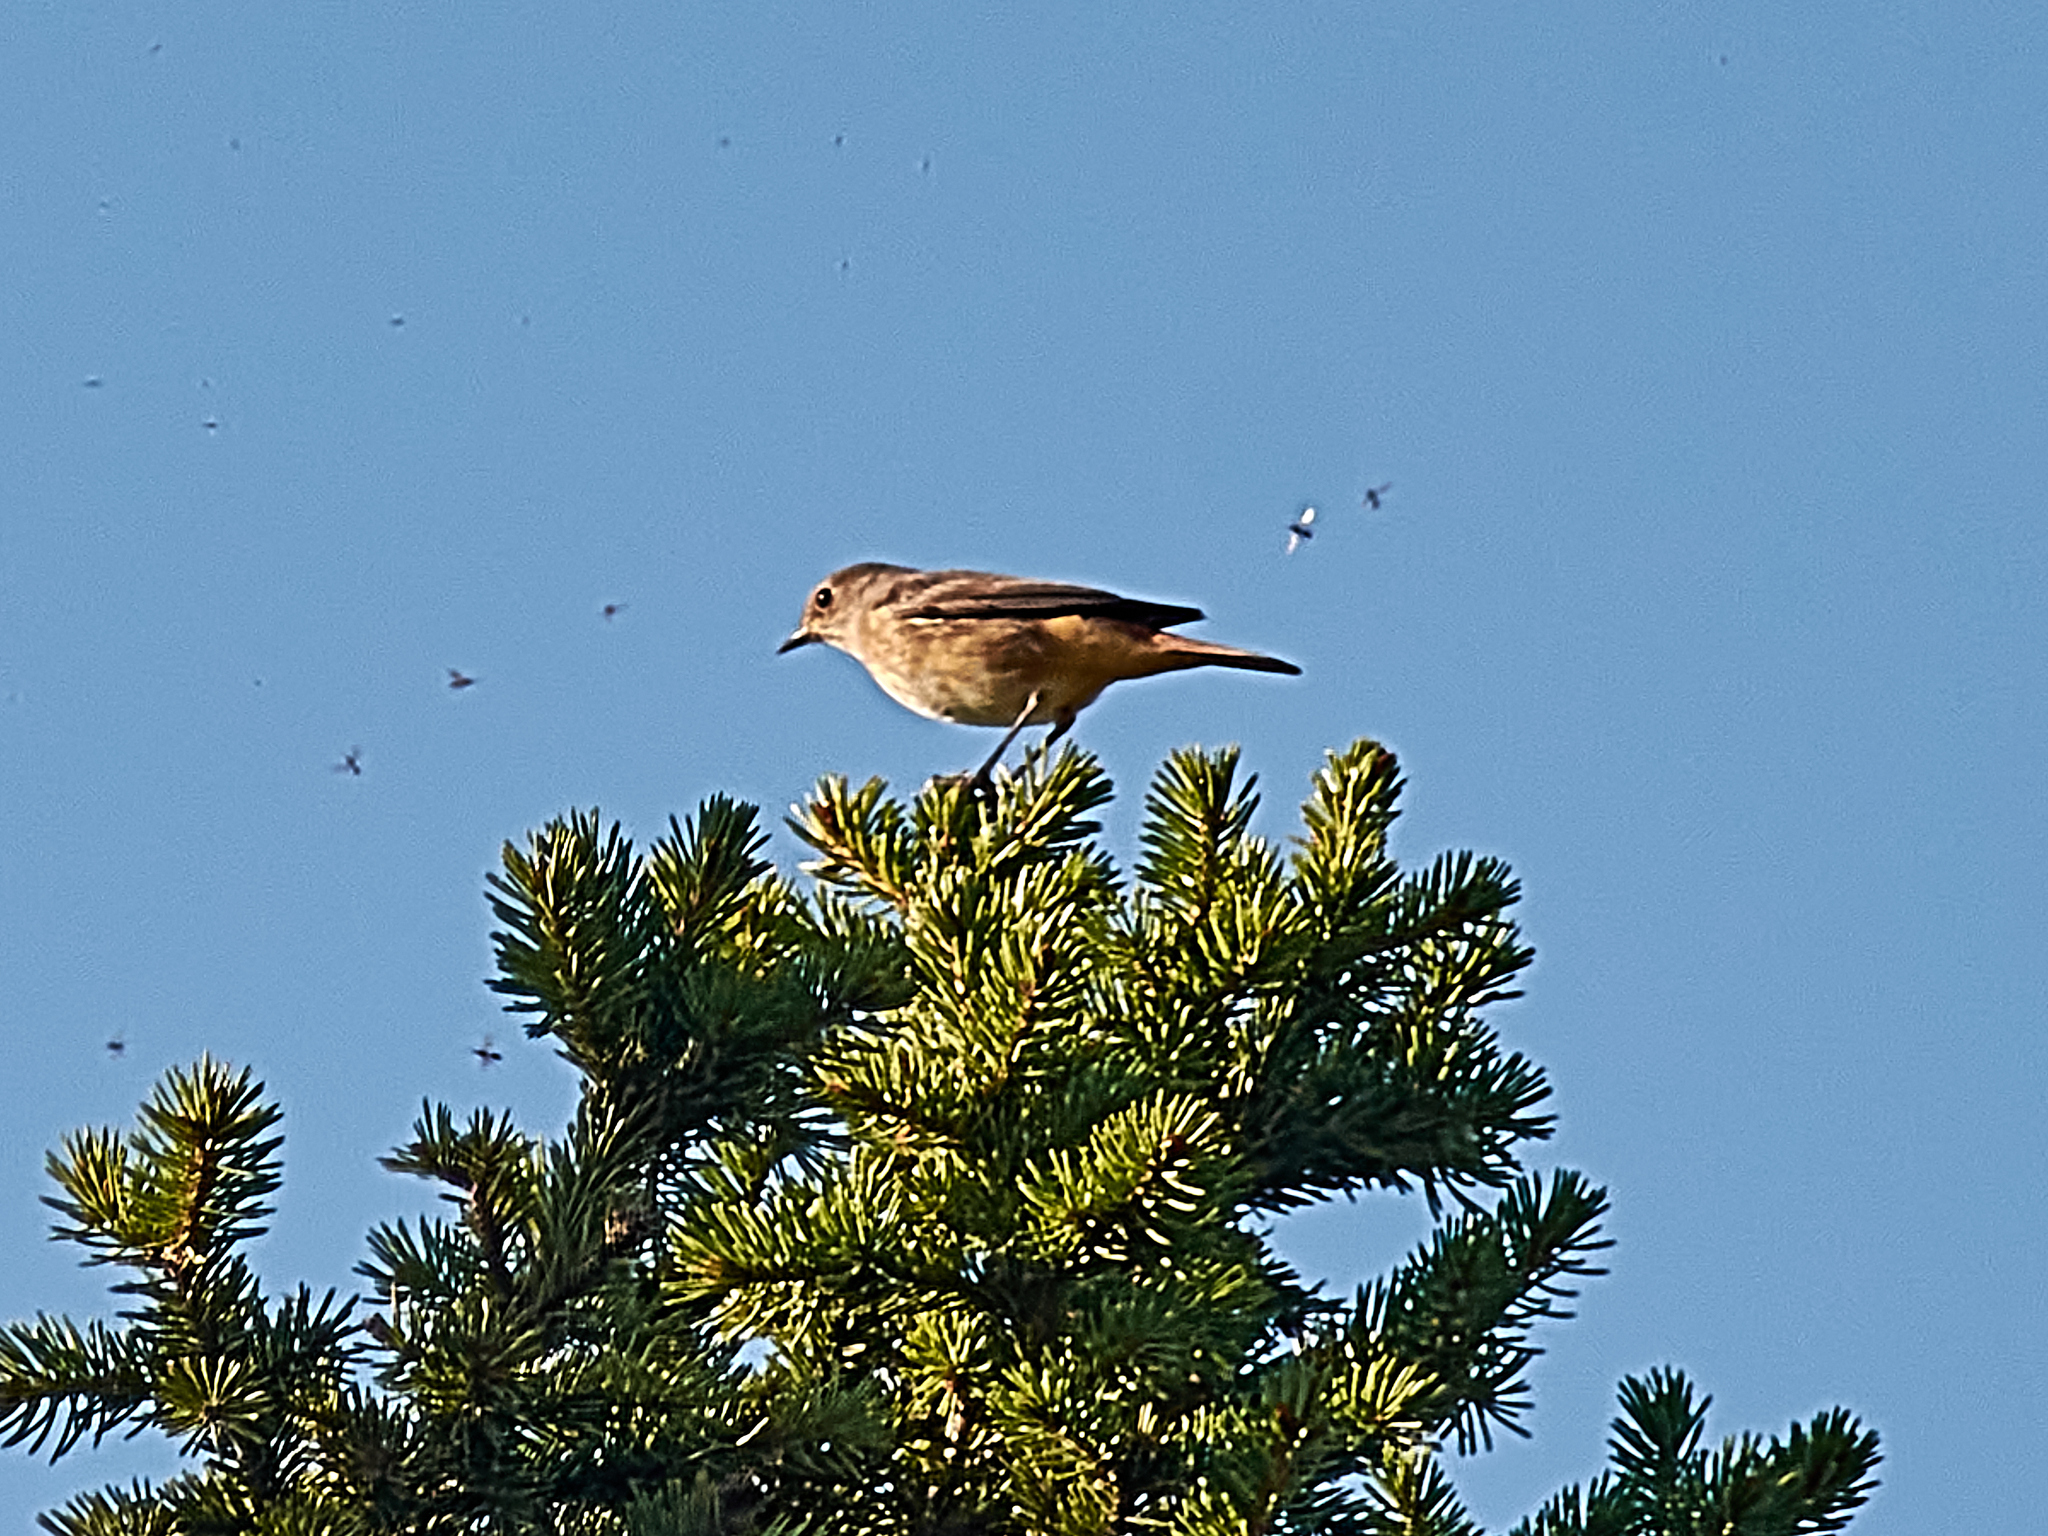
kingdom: Animalia
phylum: Chordata
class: Aves
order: Passeriformes
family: Muscicapidae
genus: Phoenicurus
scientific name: Phoenicurus phoenicurus
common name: Common redstart
